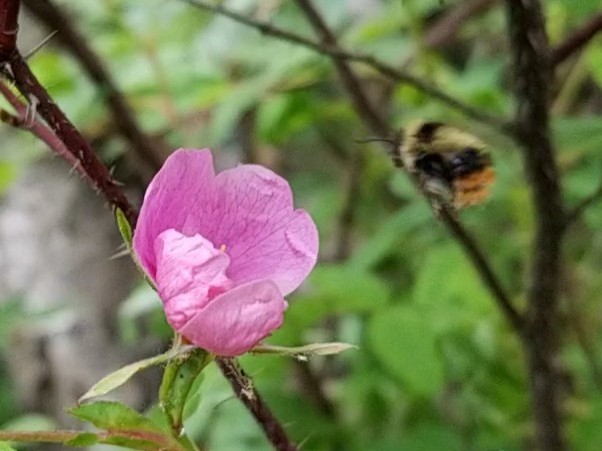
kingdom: Animalia
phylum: Arthropoda
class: Insecta
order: Hymenoptera
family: Apidae
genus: Bombus
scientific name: Bombus frigidus
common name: Frigid bumble bee
